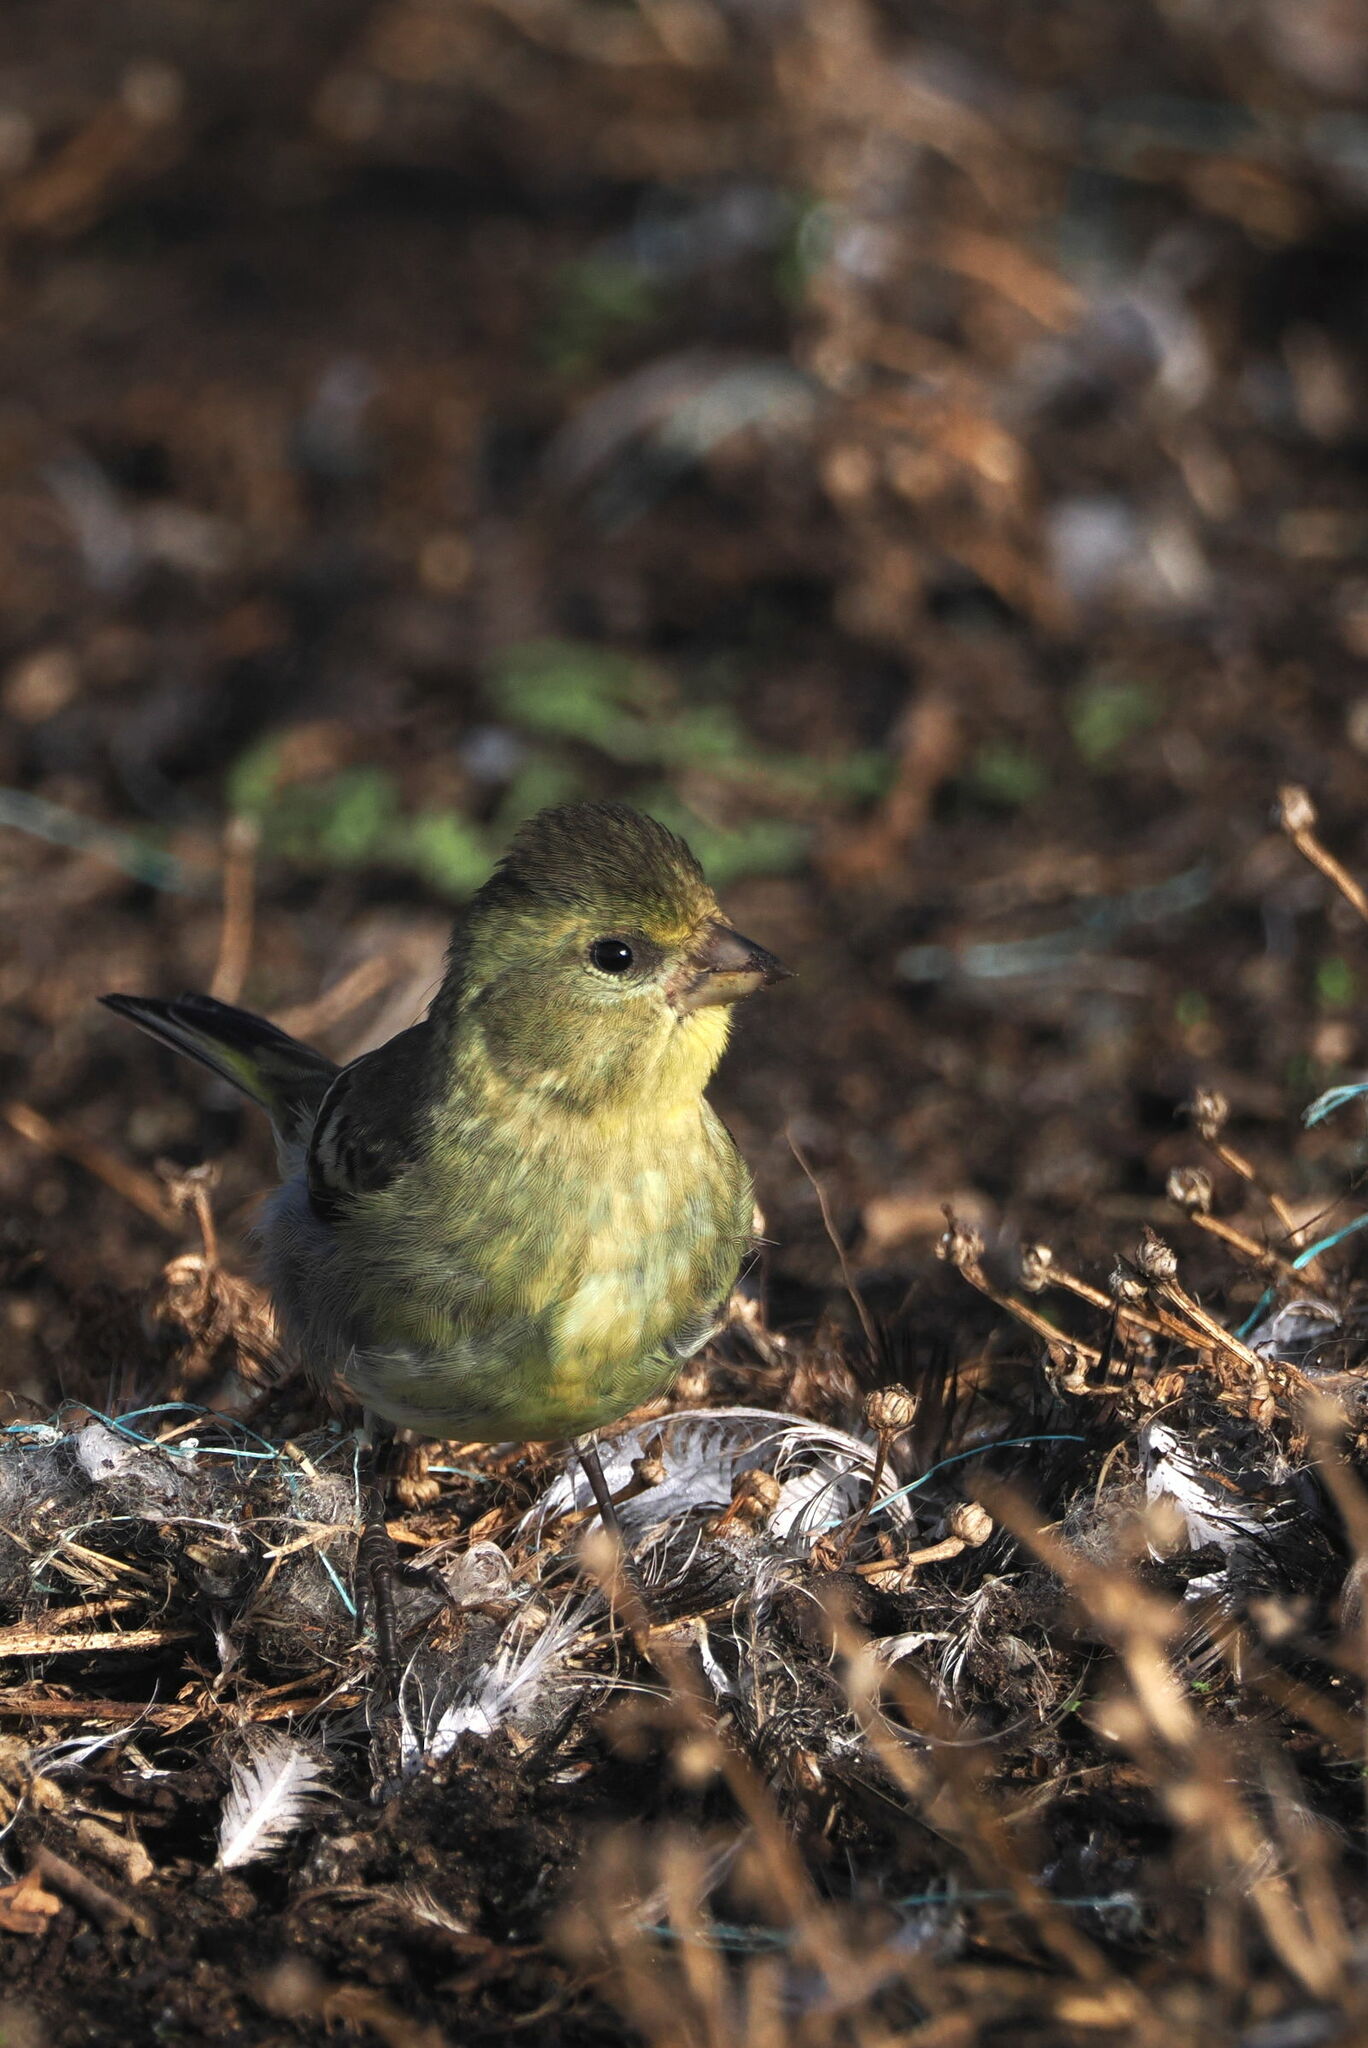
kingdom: Animalia
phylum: Chordata
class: Aves
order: Passeriformes
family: Fringillidae
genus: Spinus
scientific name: Spinus barbatus
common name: Black-chinned siskin
